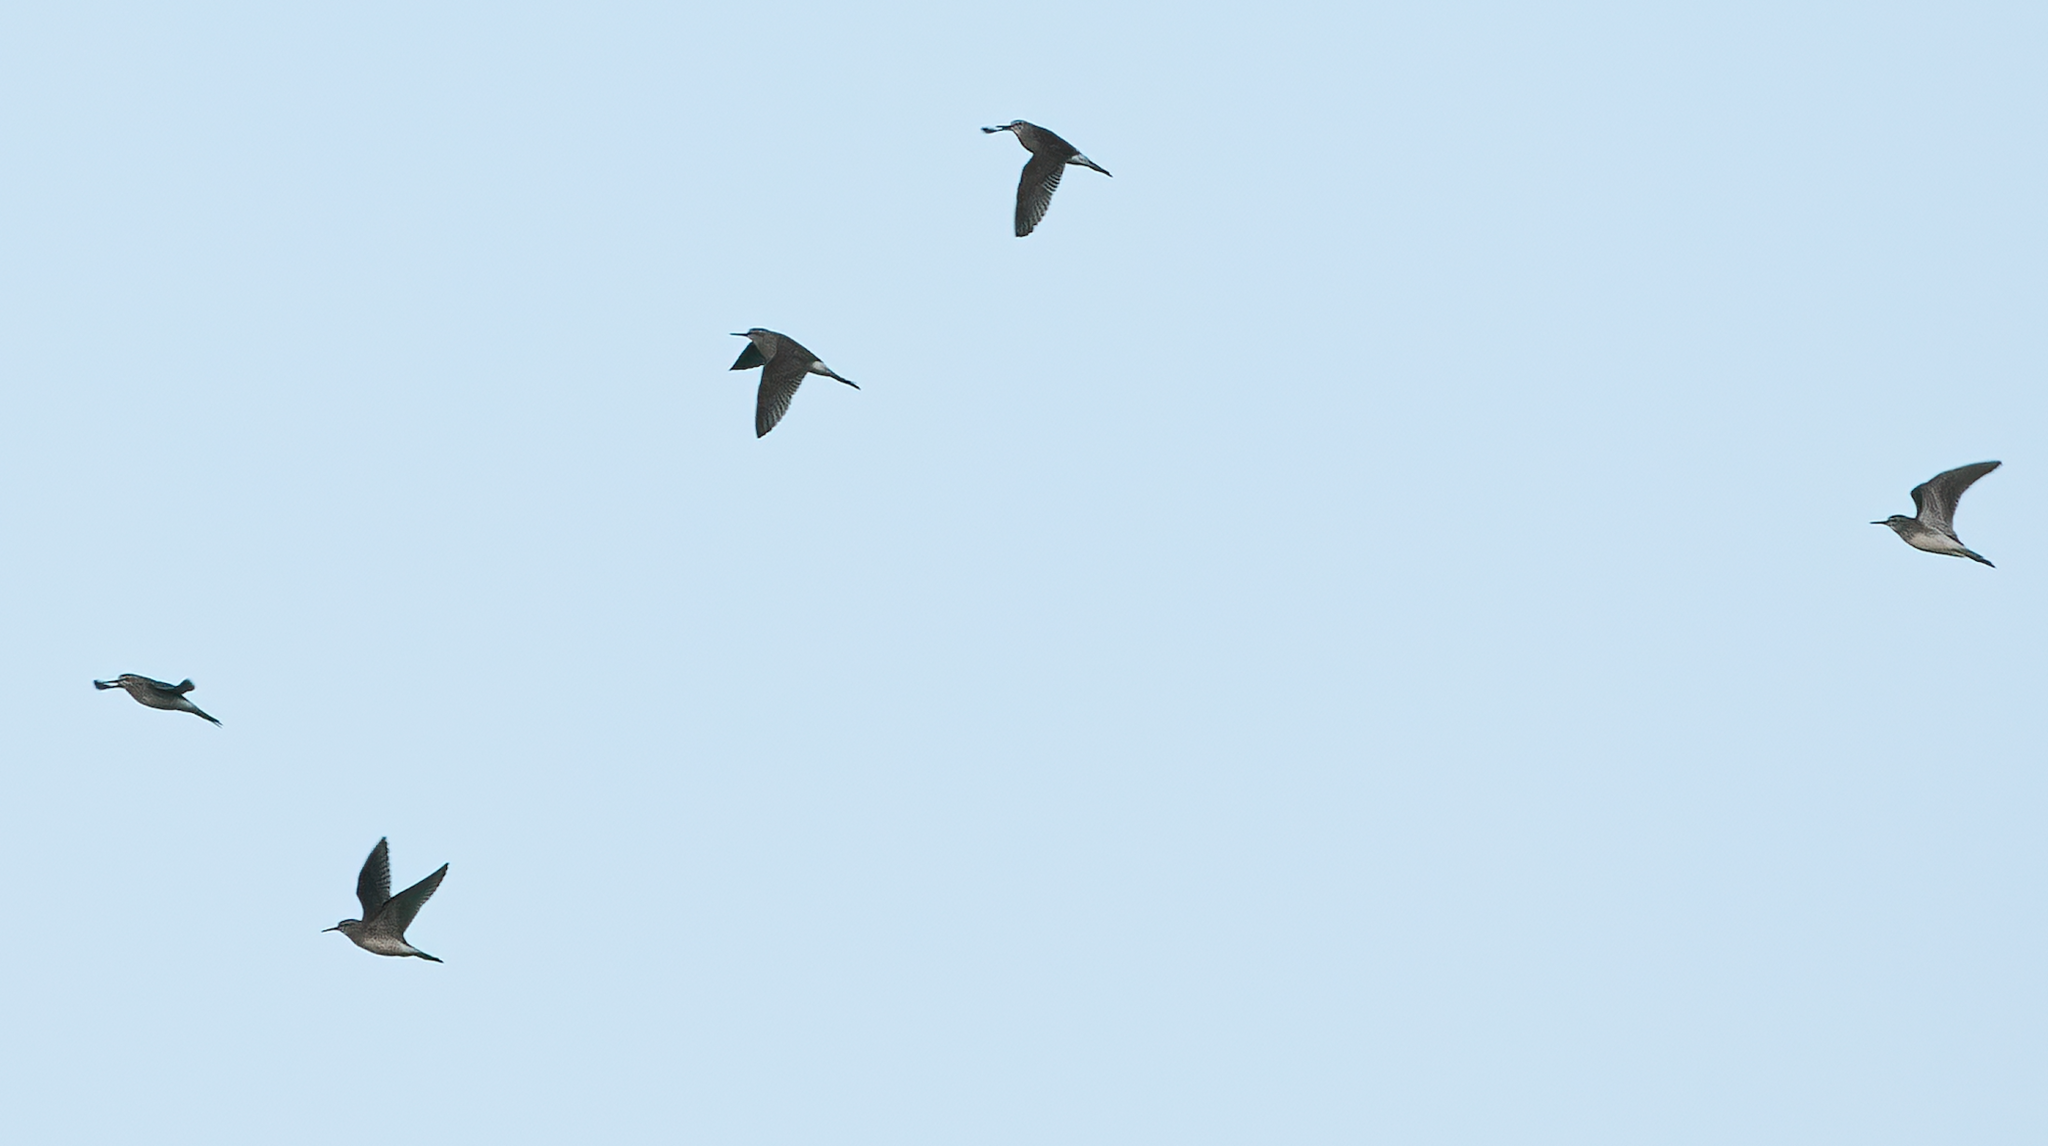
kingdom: Animalia
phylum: Chordata
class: Aves
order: Charadriiformes
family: Scolopacidae
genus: Tringa
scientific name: Tringa glareola
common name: Wood sandpiper
